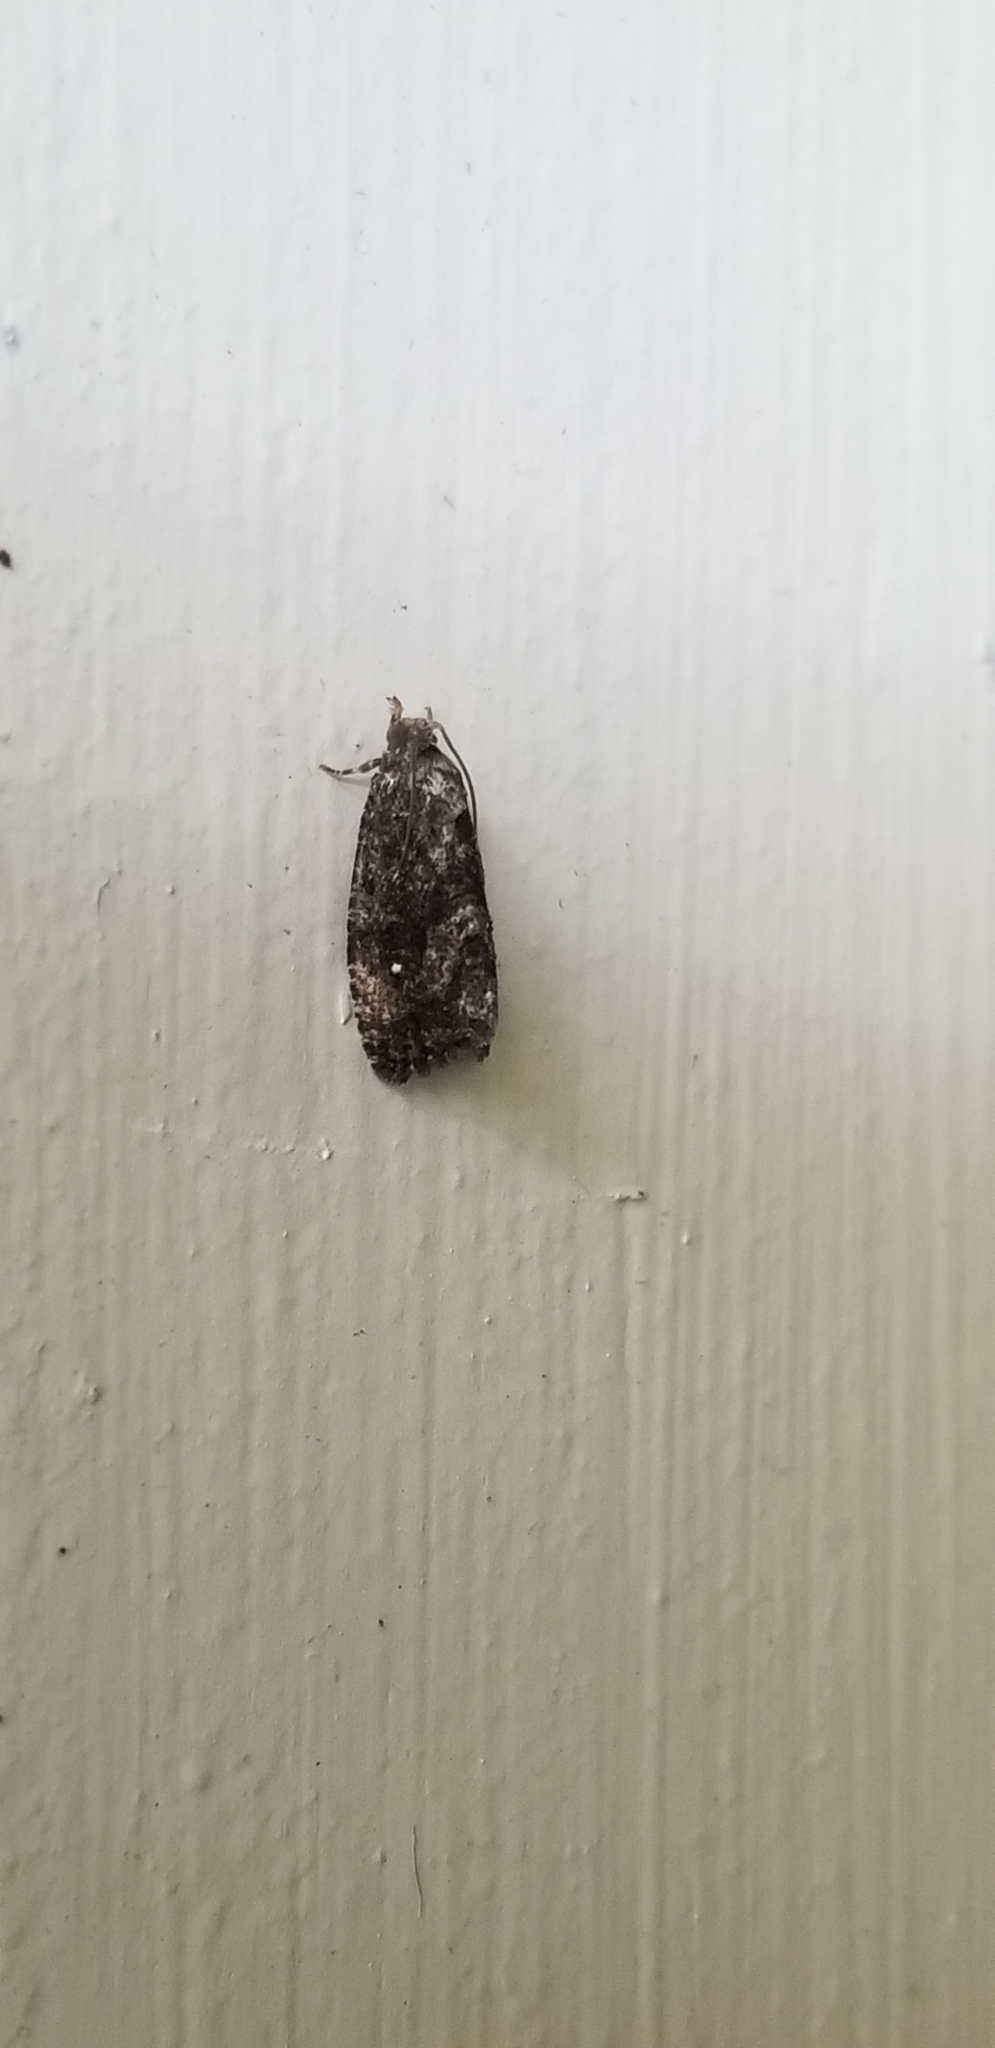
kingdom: Animalia
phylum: Arthropoda
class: Insecta
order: Lepidoptera
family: Tortricidae
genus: Gymnandrosoma
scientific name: Gymnandrosoma punctidiscanum
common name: Dotted ecdytolopha moth
